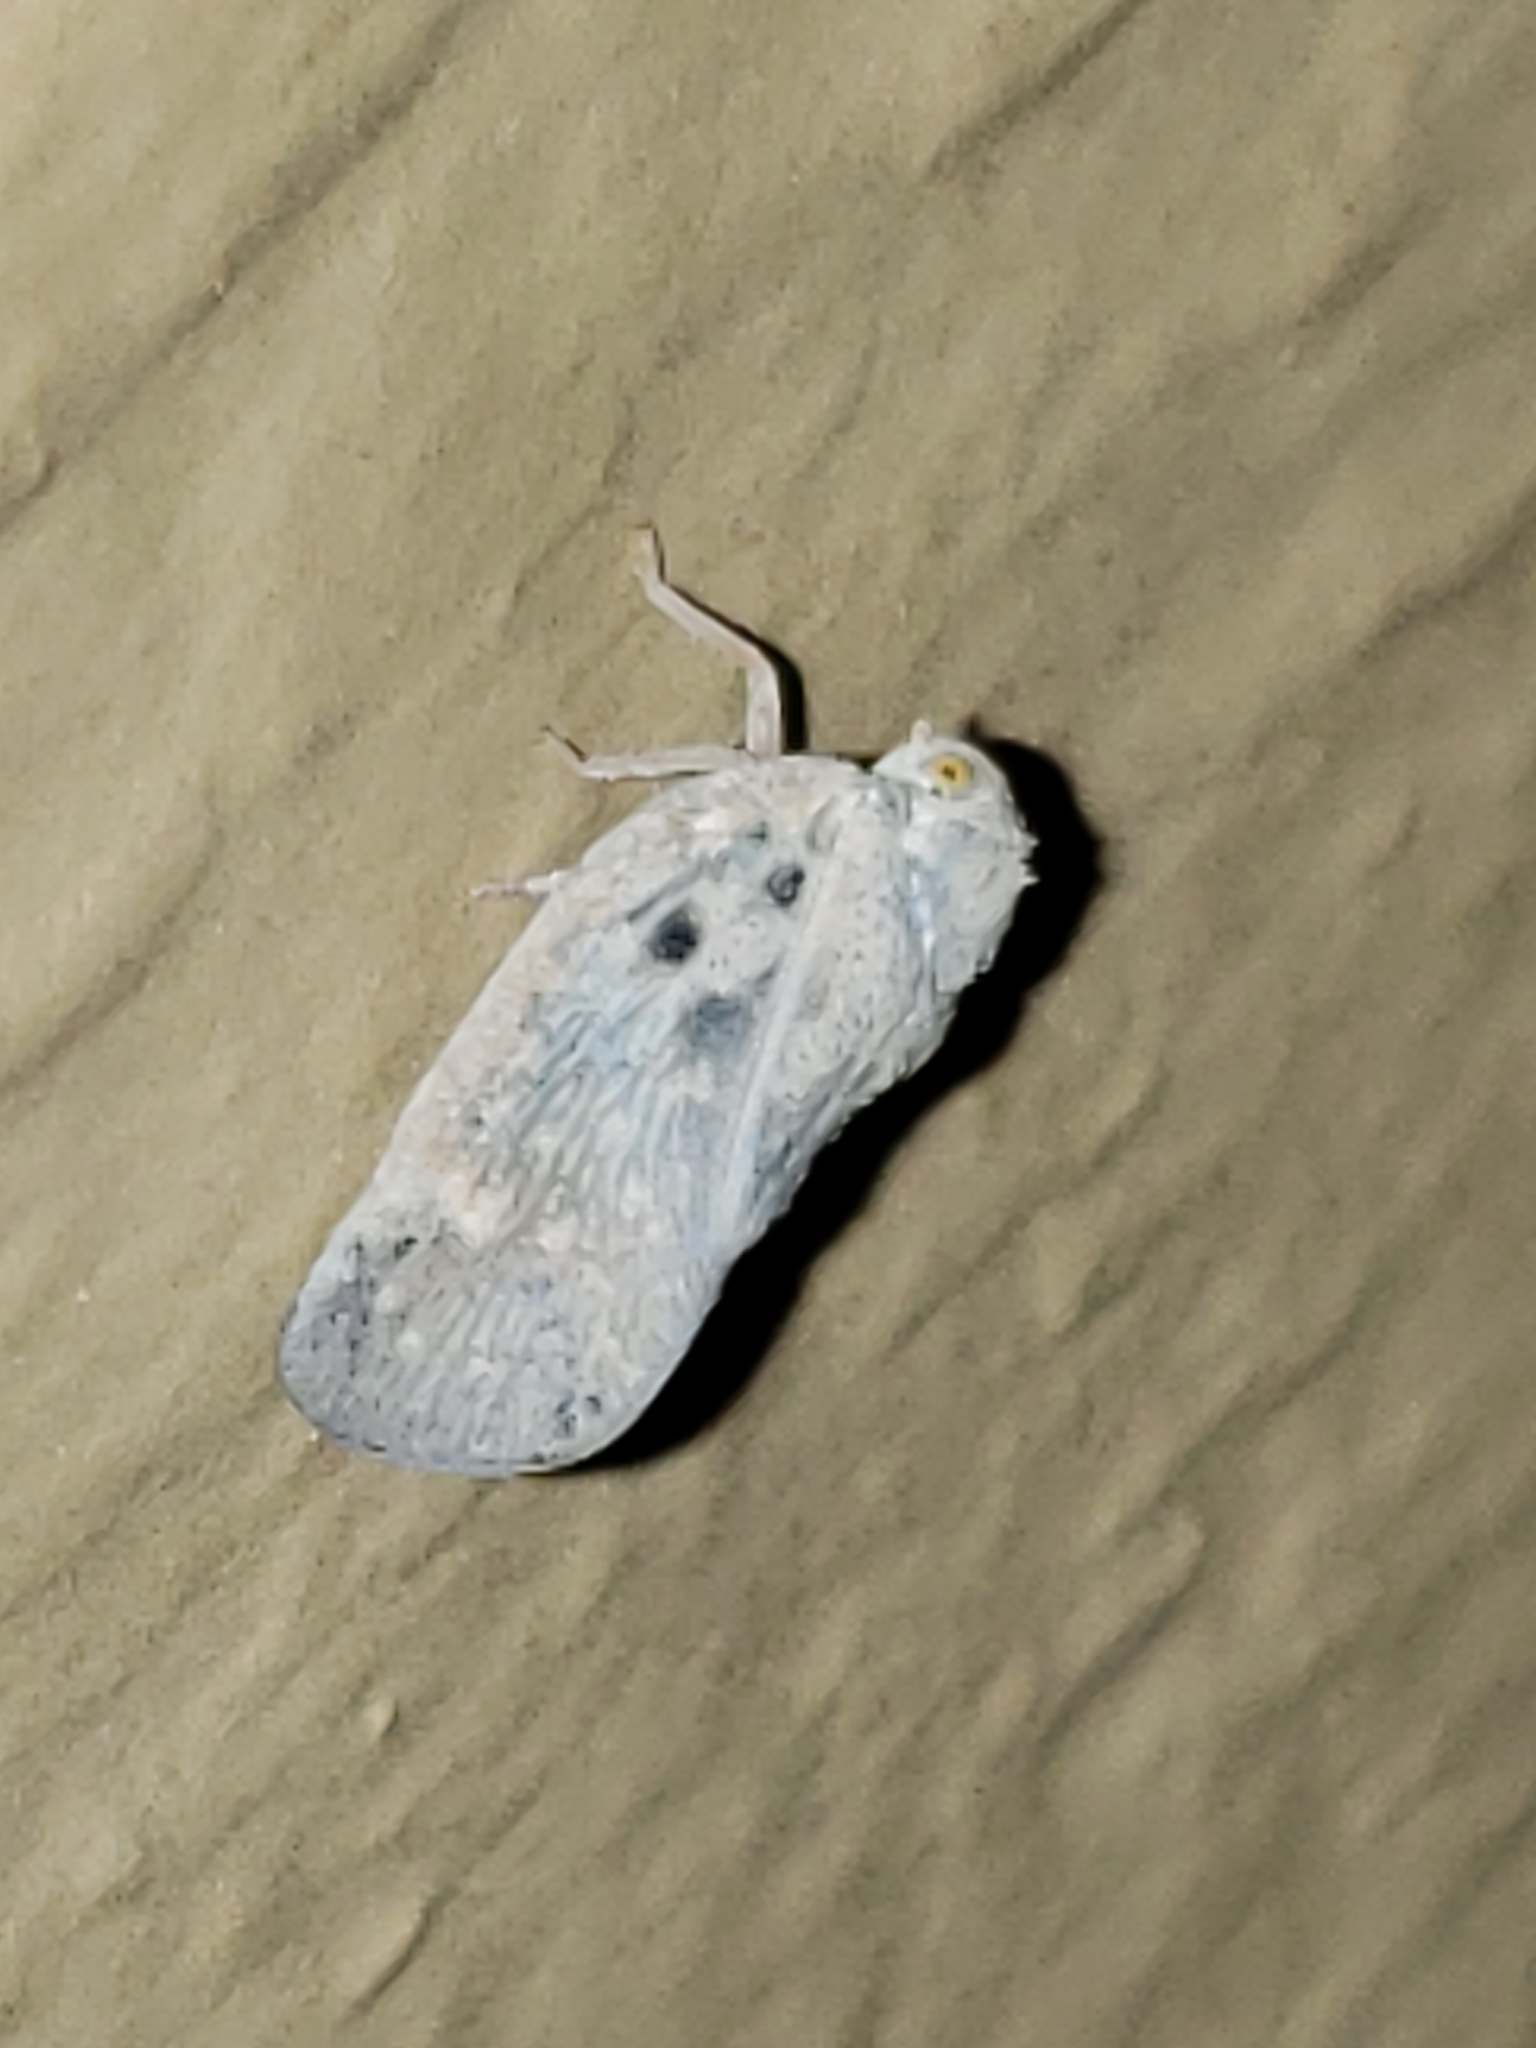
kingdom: Animalia
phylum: Arthropoda
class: Insecta
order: Hemiptera
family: Flatidae
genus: Metcalfa
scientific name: Metcalfa pruinosa
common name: Citrus flatid planthopper
